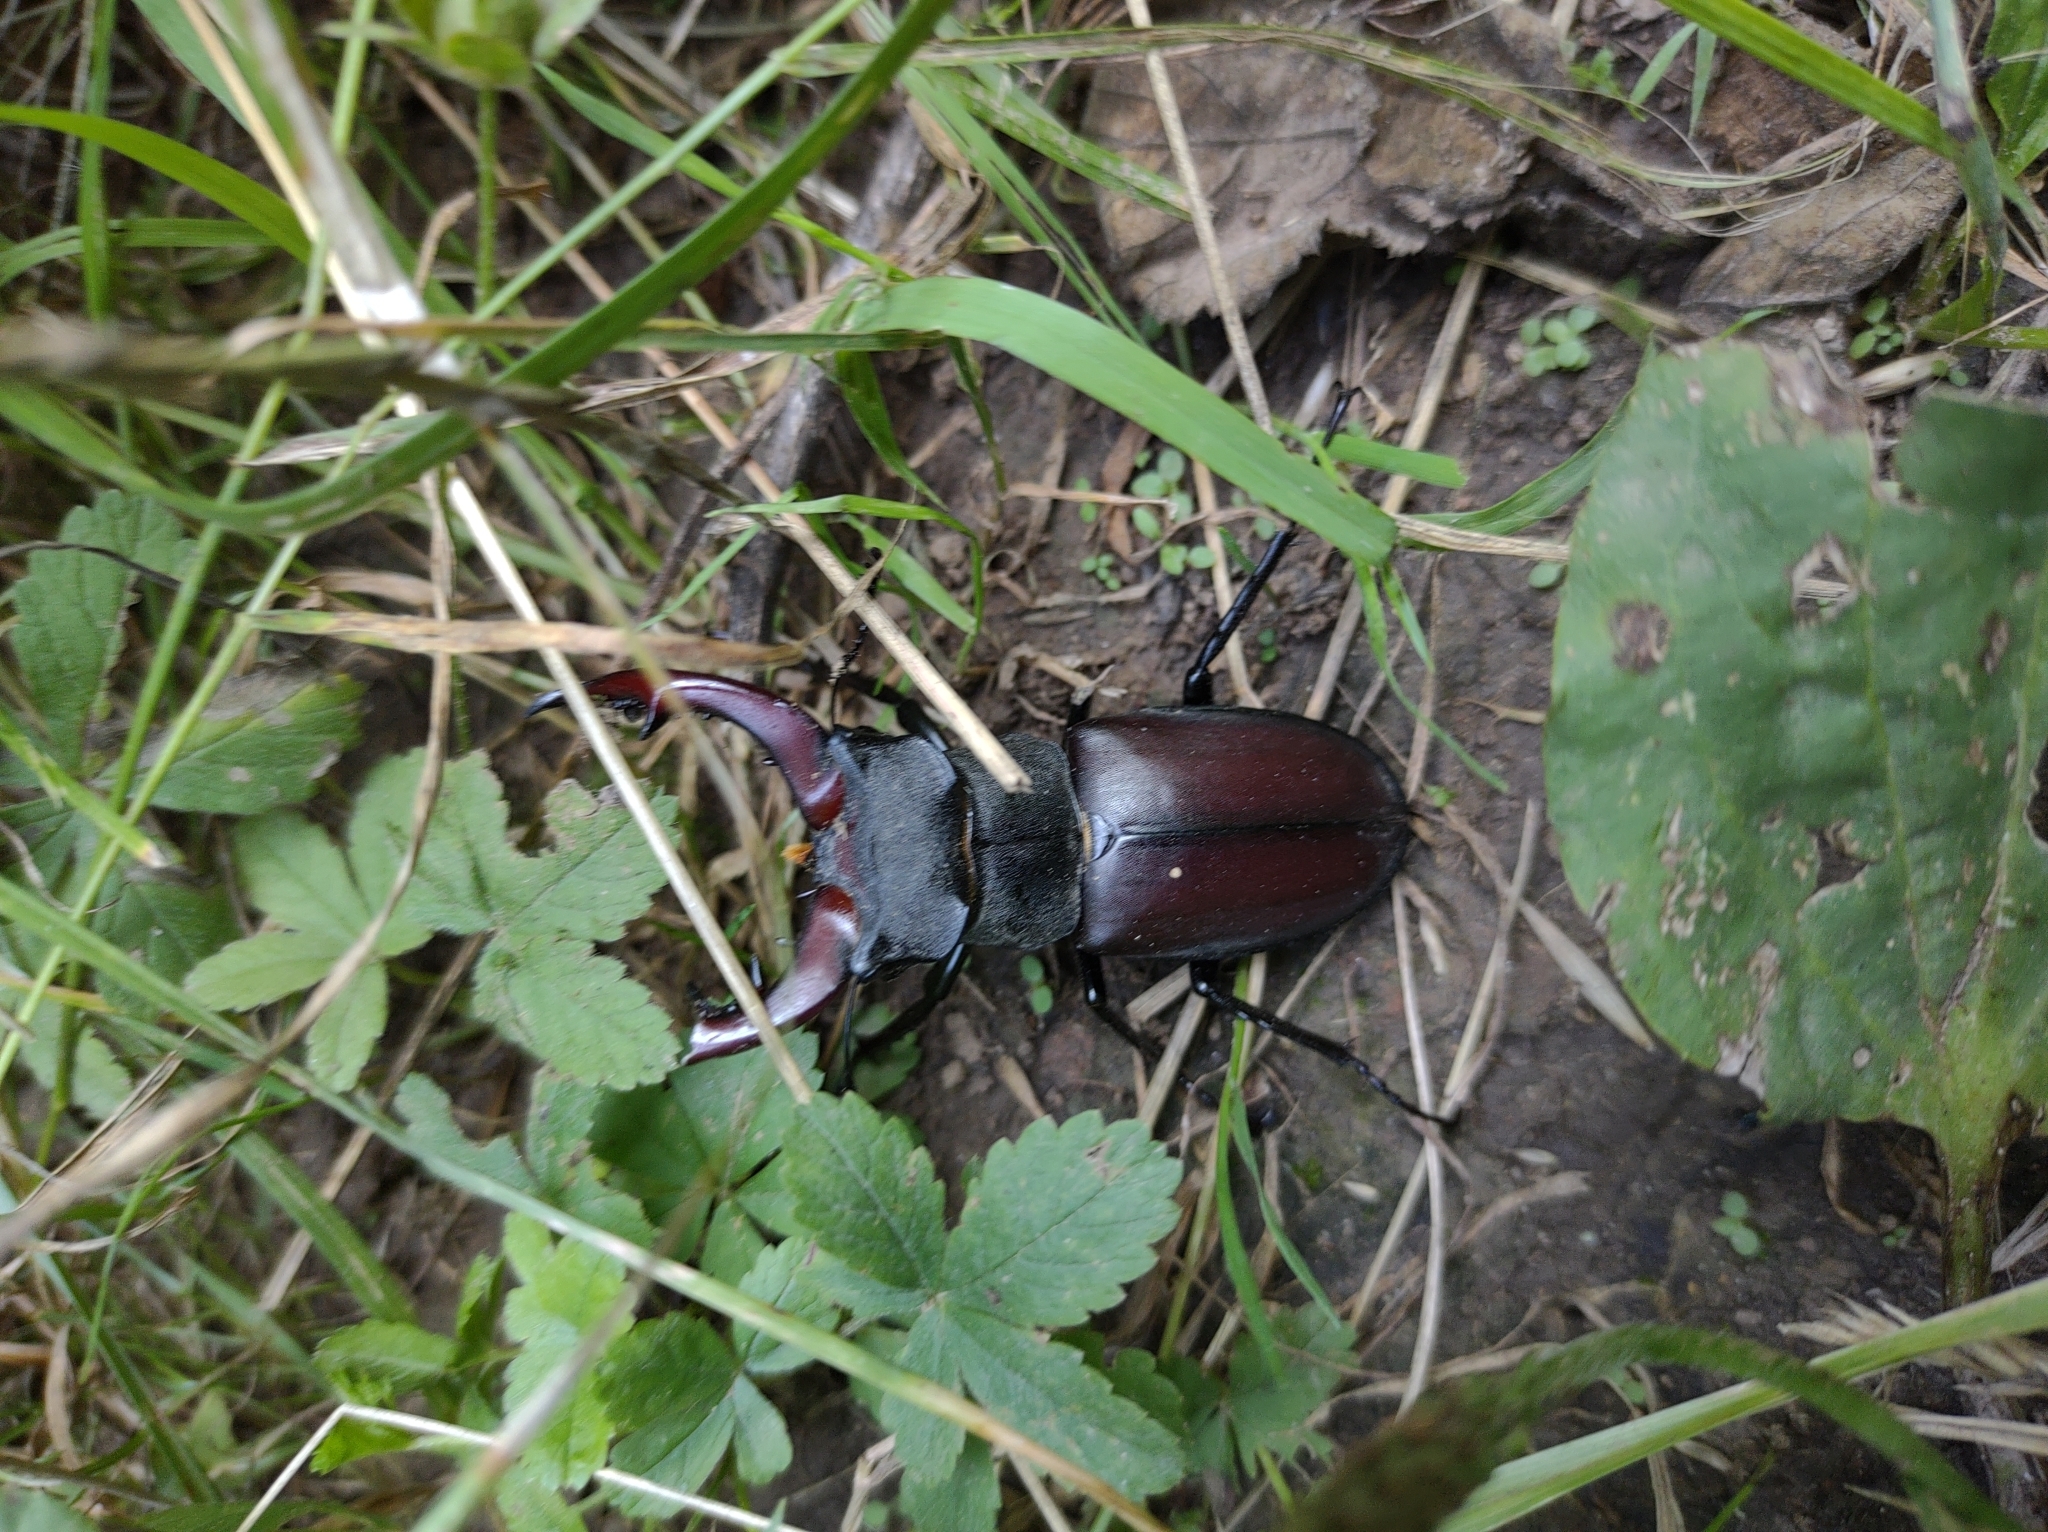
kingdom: Animalia
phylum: Arthropoda
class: Insecta
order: Coleoptera
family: Lucanidae
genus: Lucanus
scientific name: Lucanus cervus
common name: Stag beetle
